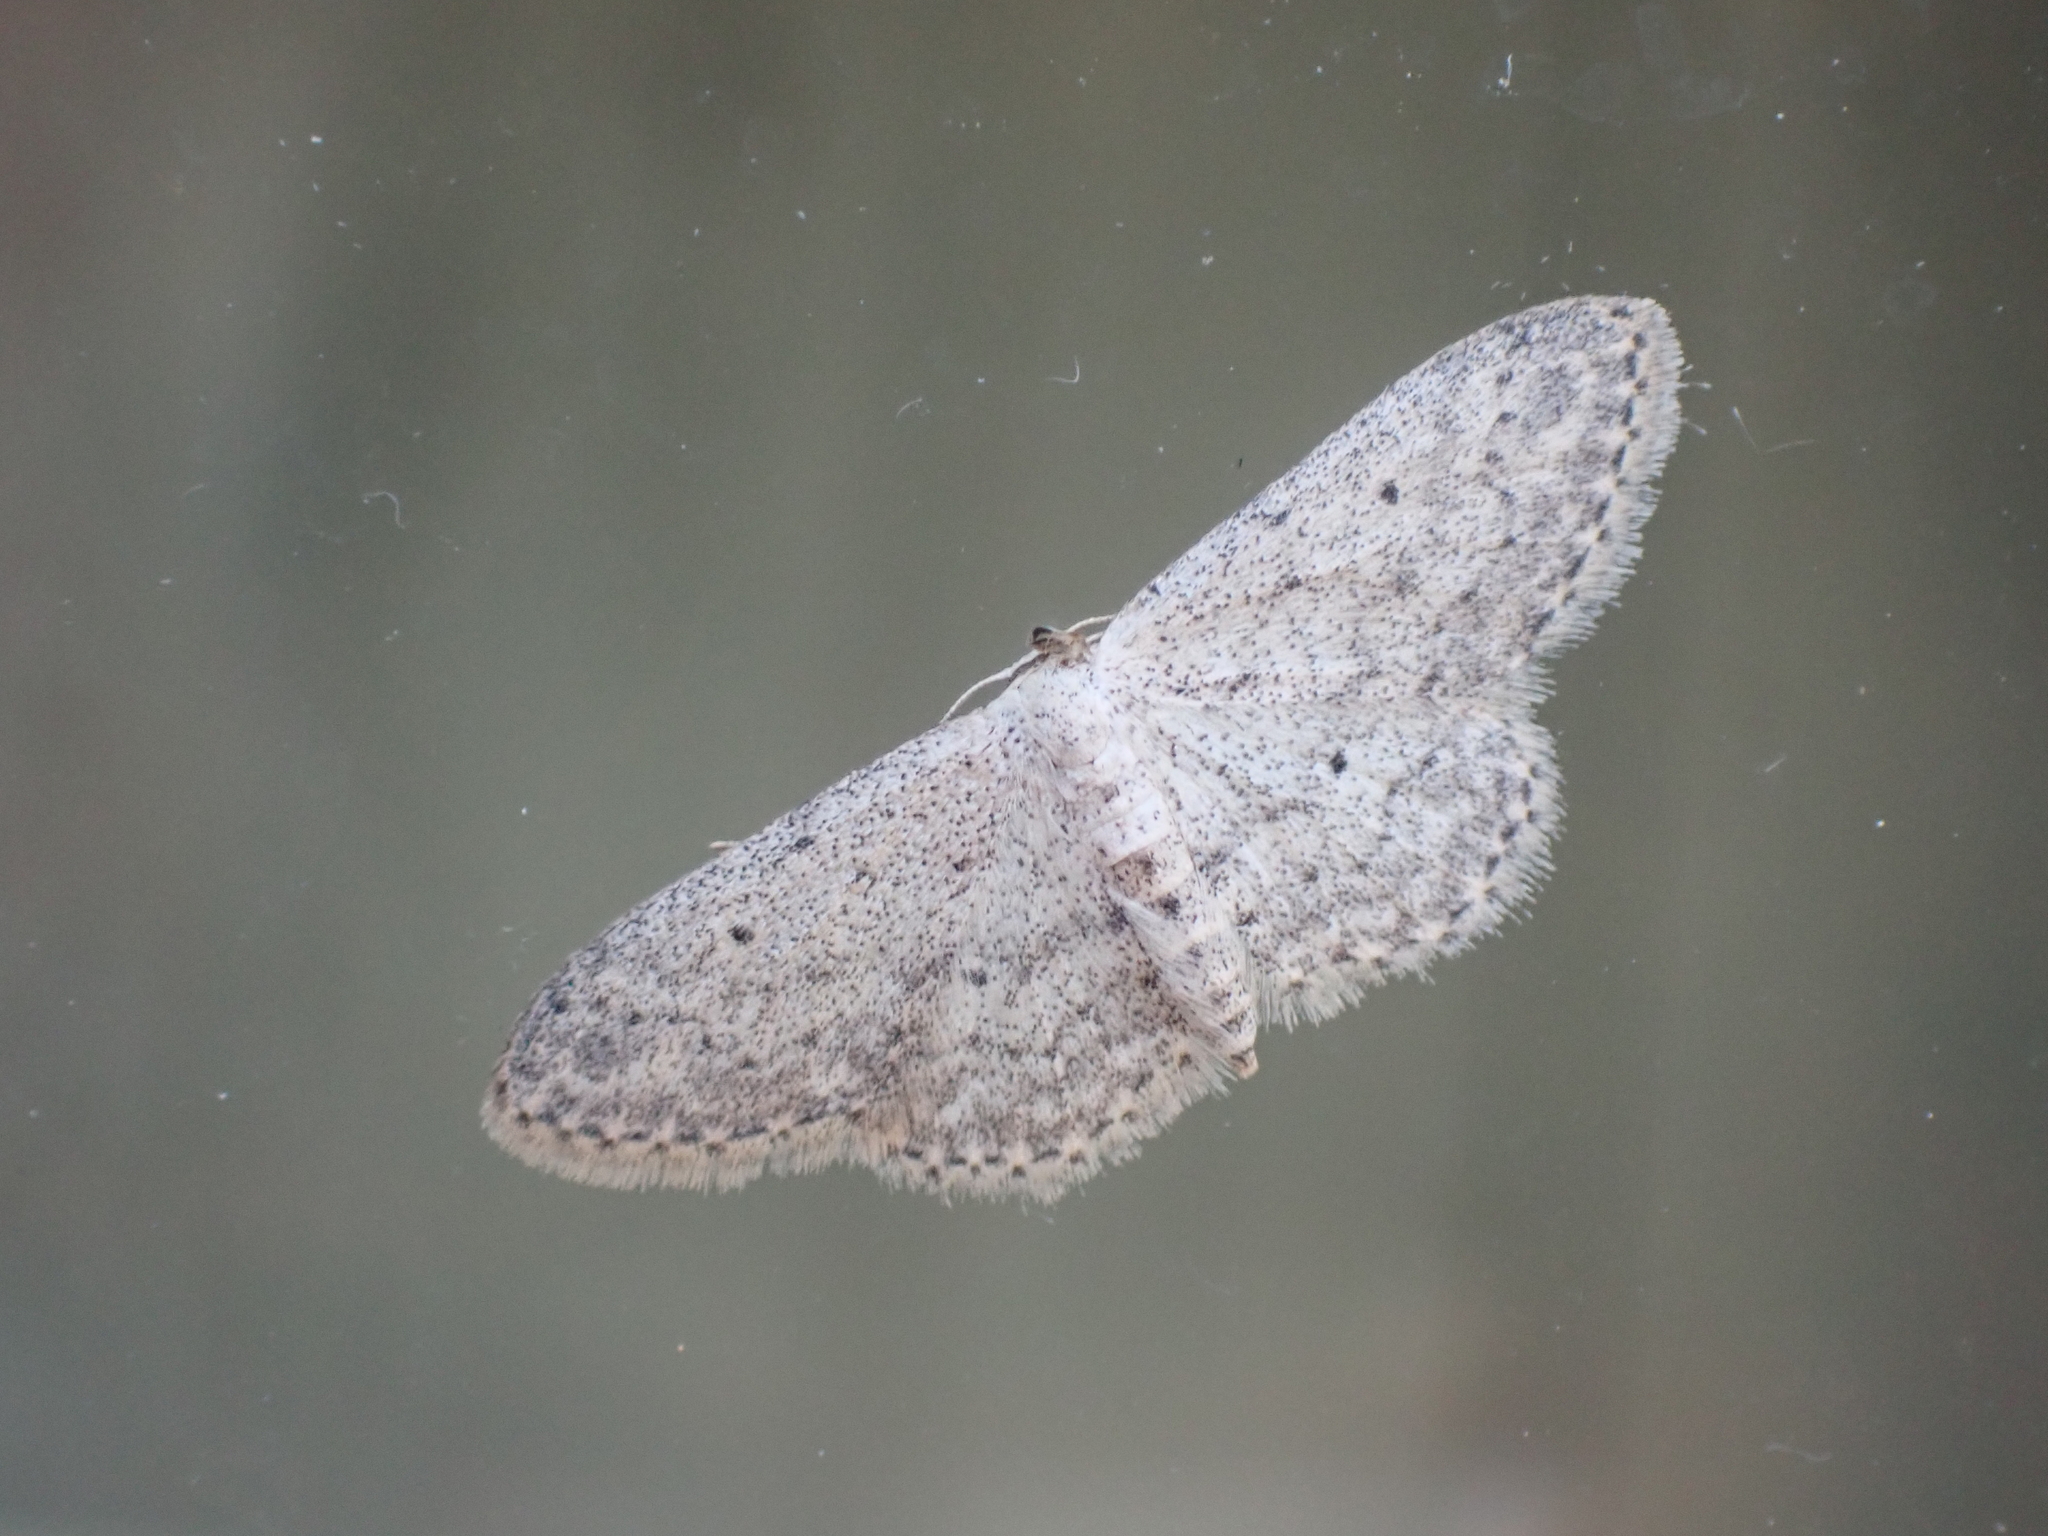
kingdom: Animalia
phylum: Arthropoda
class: Insecta
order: Lepidoptera
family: Geometridae
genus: Idaea
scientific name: Idaea seriata
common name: Small dusty wave
